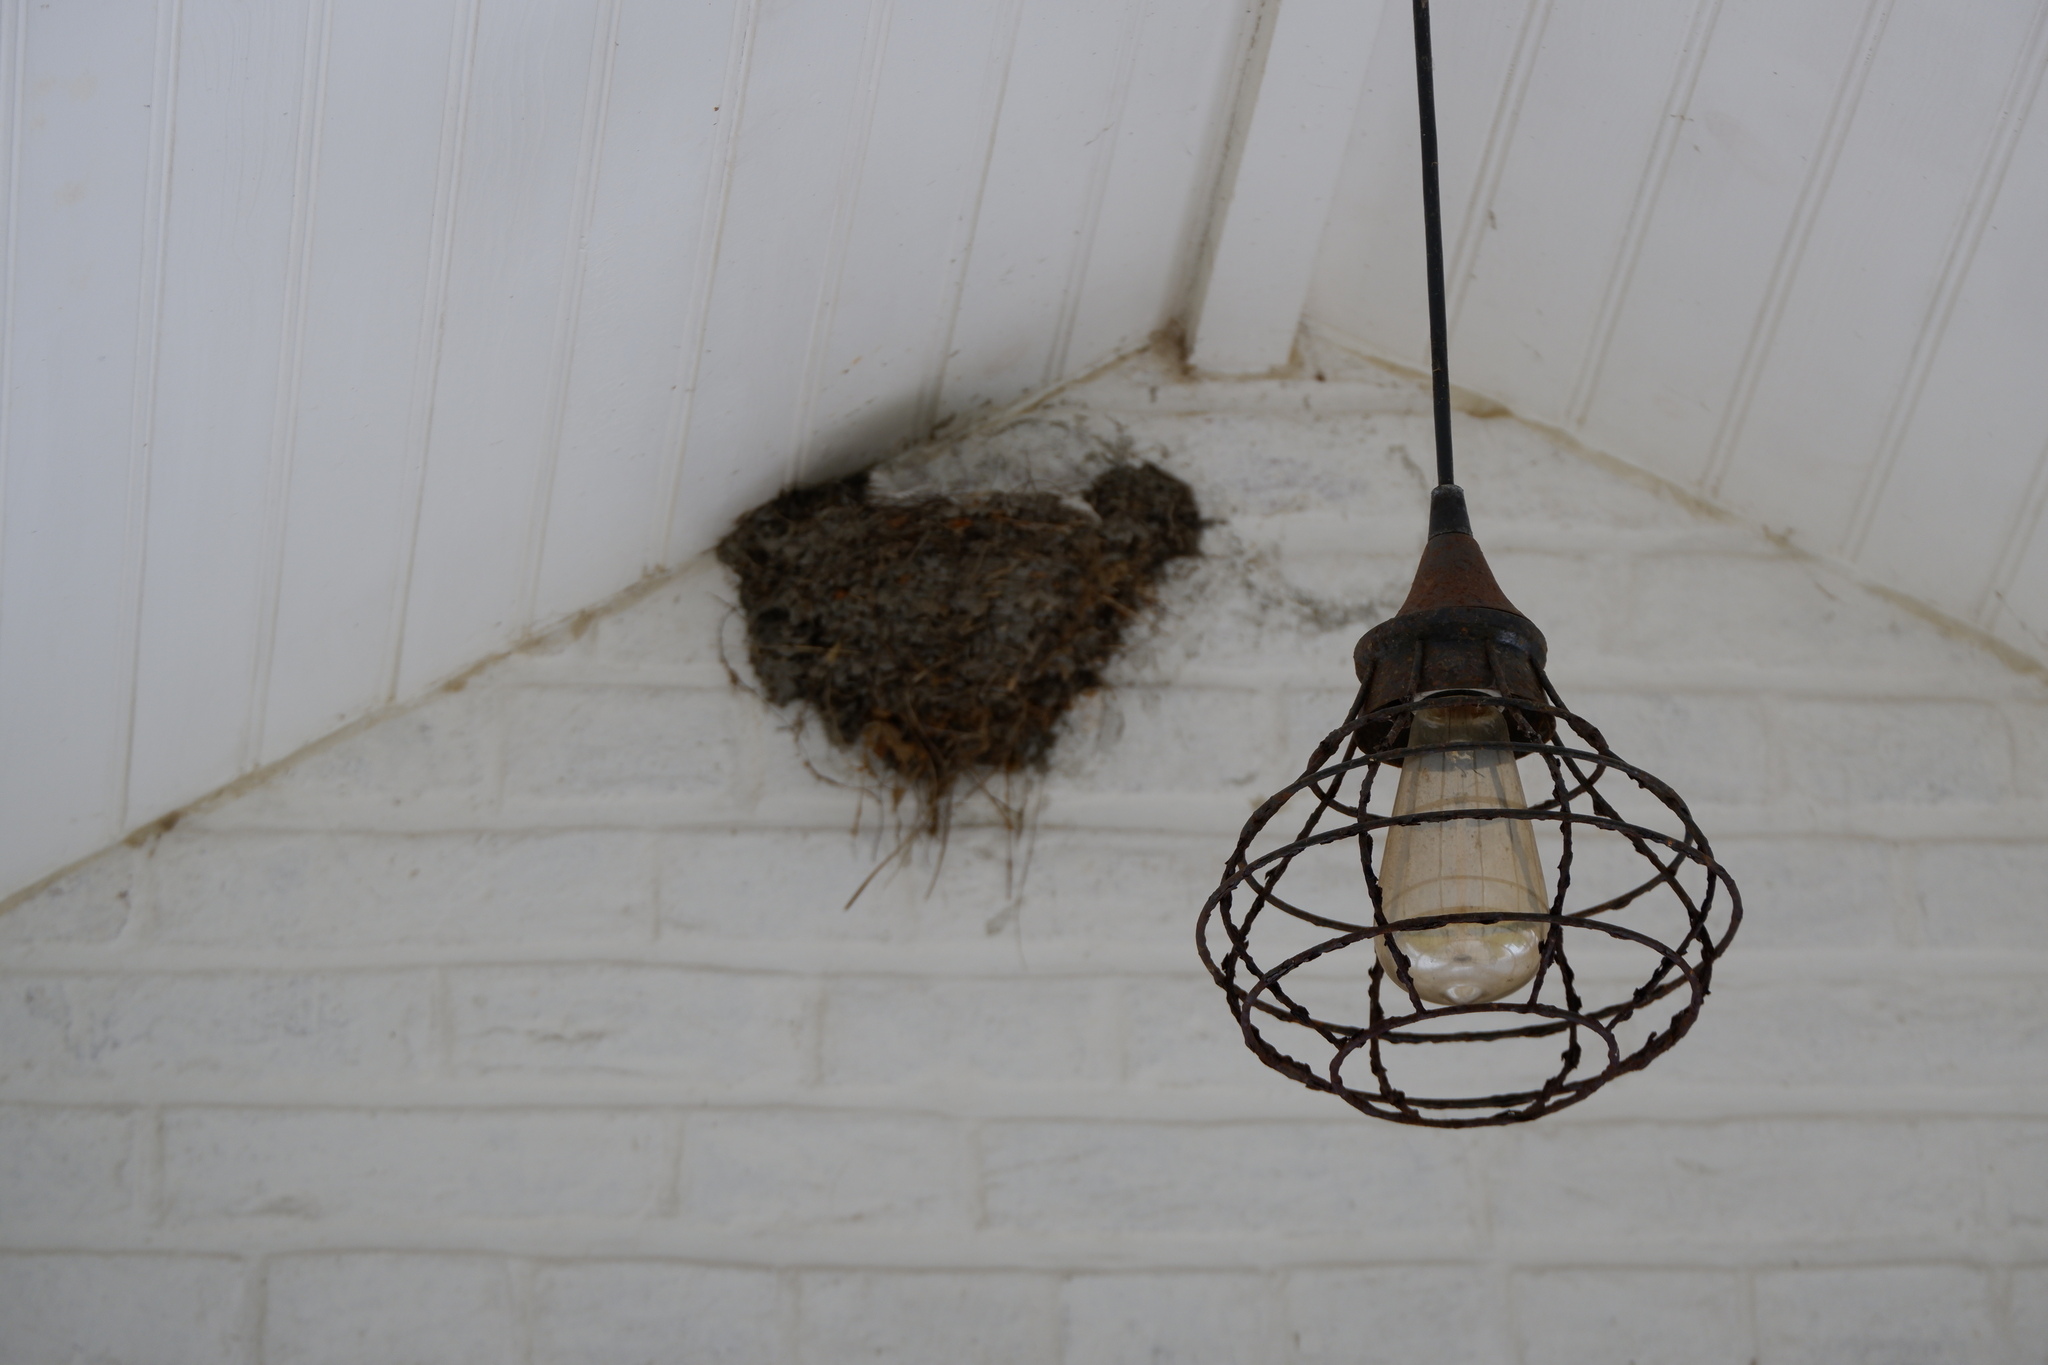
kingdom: Animalia
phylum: Chordata
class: Aves
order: Passeriformes
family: Hirundinidae
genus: Hirundo
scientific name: Hirundo rustica
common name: Barn swallow
